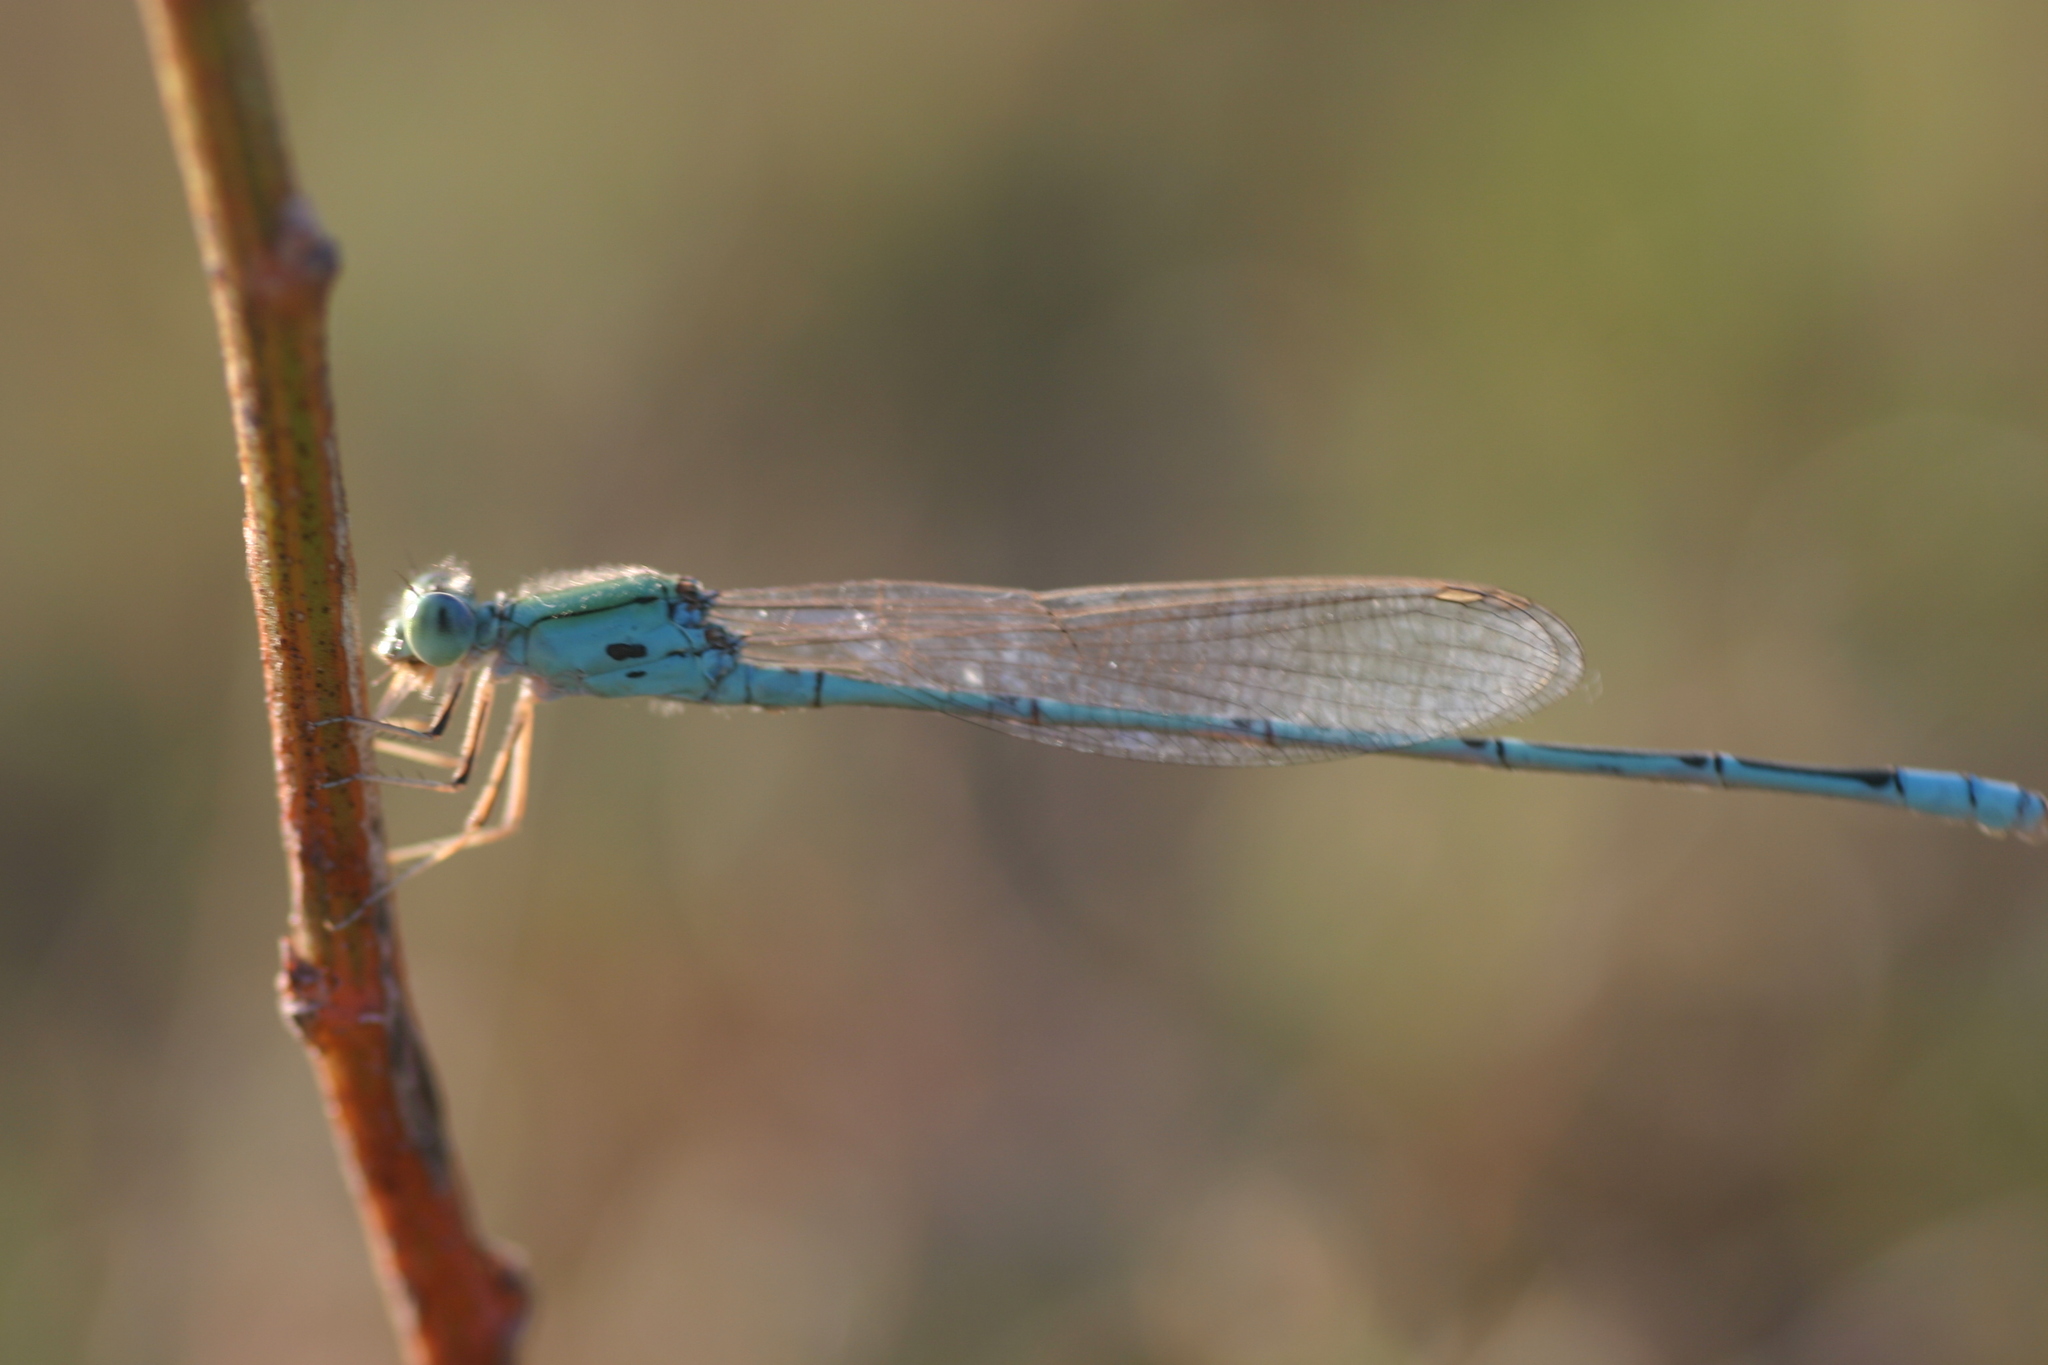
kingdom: Animalia
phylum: Arthropoda
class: Insecta
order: Odonata
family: Coenagrionidae
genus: Pseudagrion
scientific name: Pseudagrion decorum
